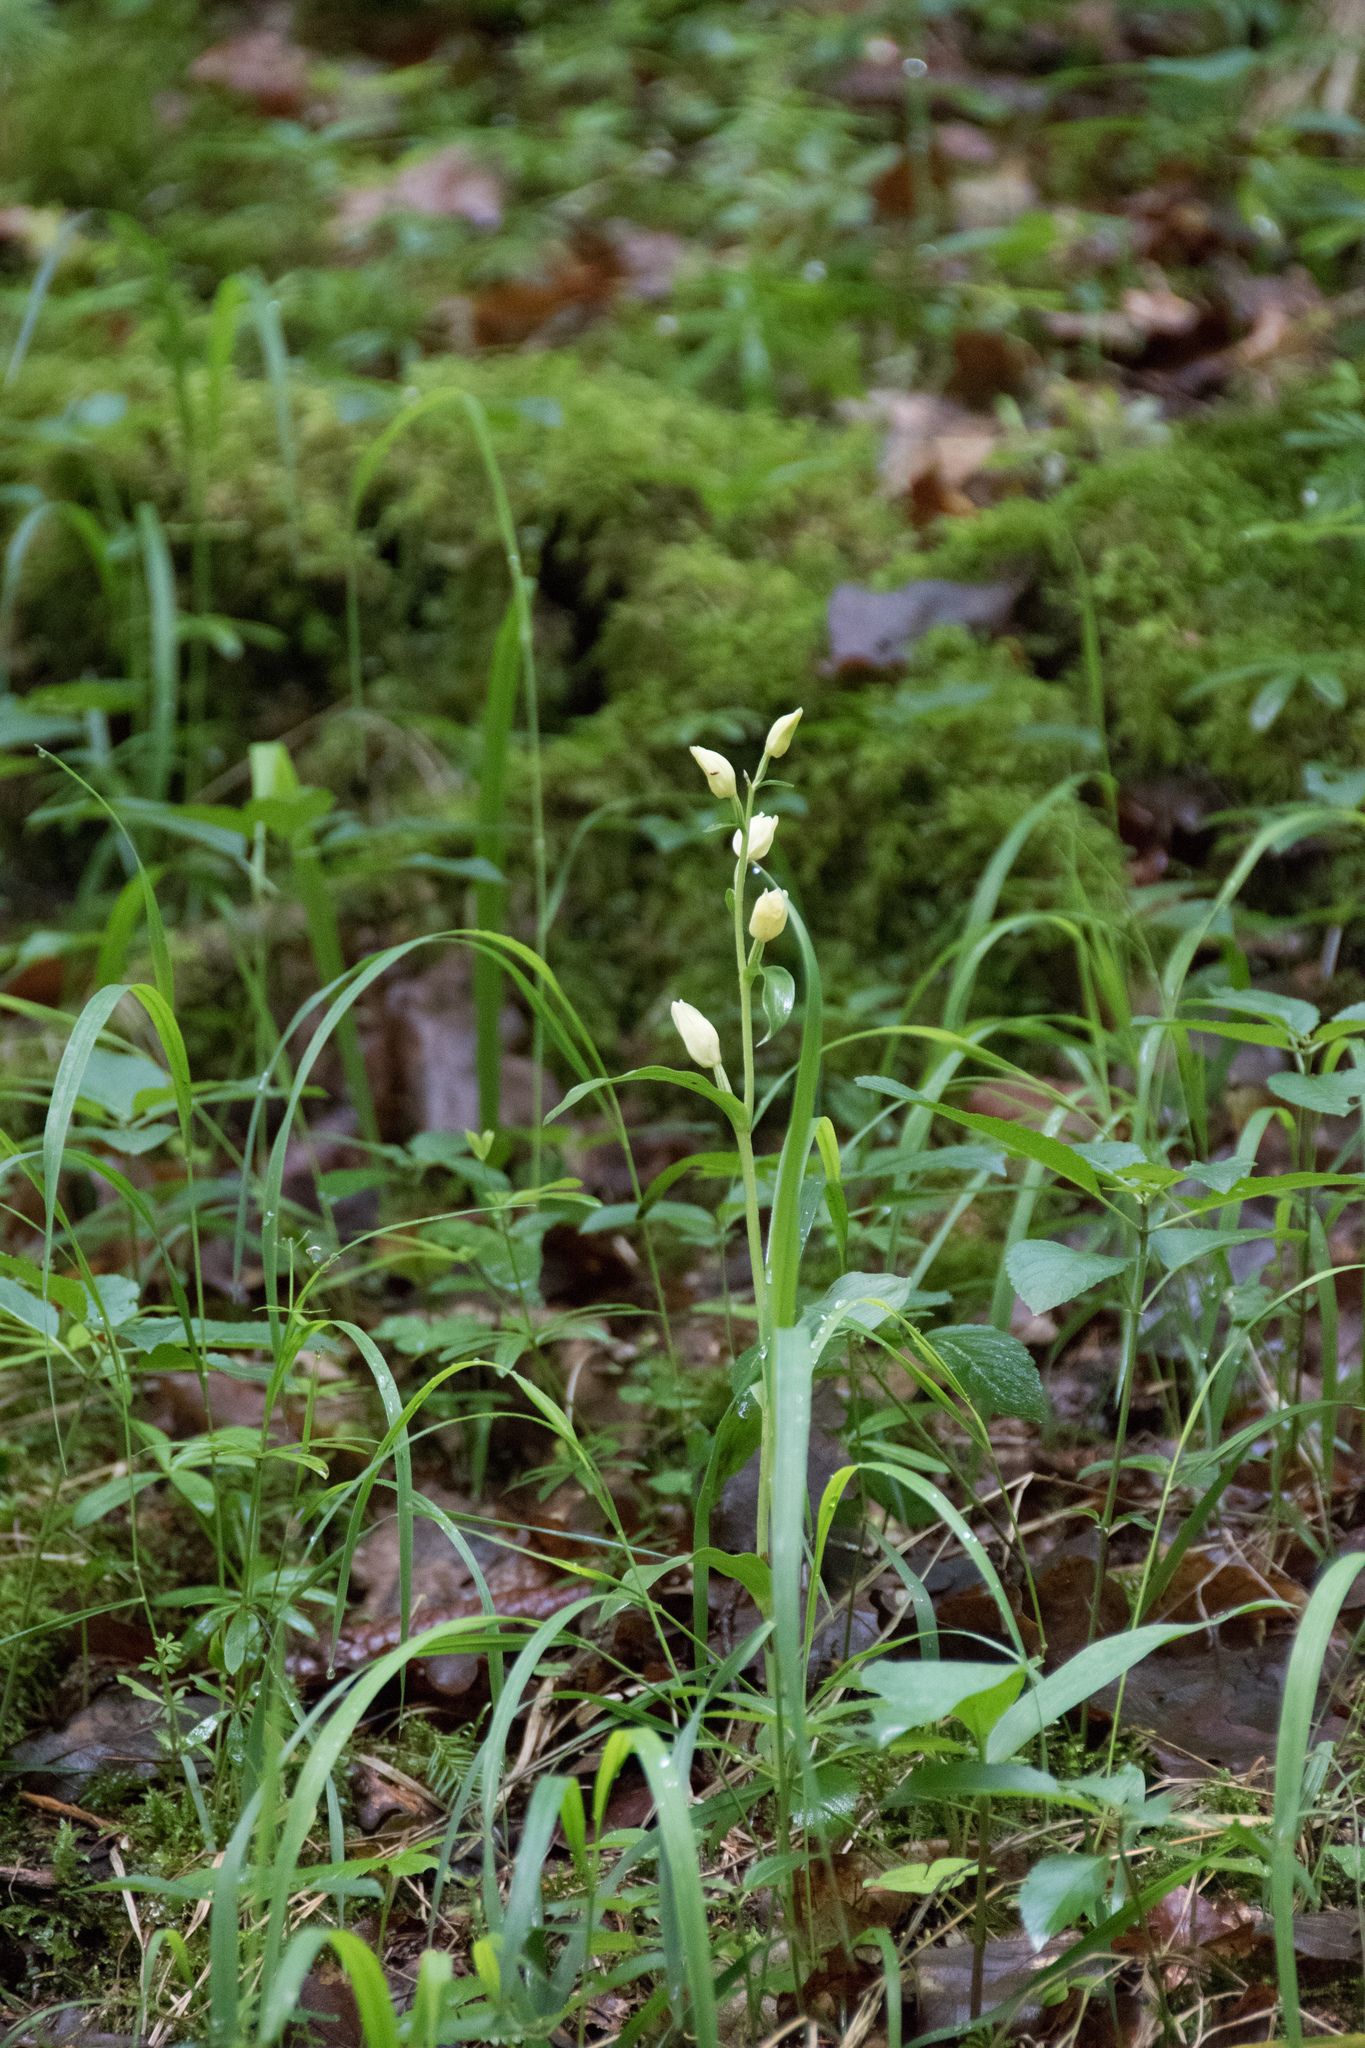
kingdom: Plantae
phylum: Tracheophyta
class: Liliopsida
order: Asparagales
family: Orchidaceae
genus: Cephalanthera
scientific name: Cephalanthera damasonium
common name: White helleborine
